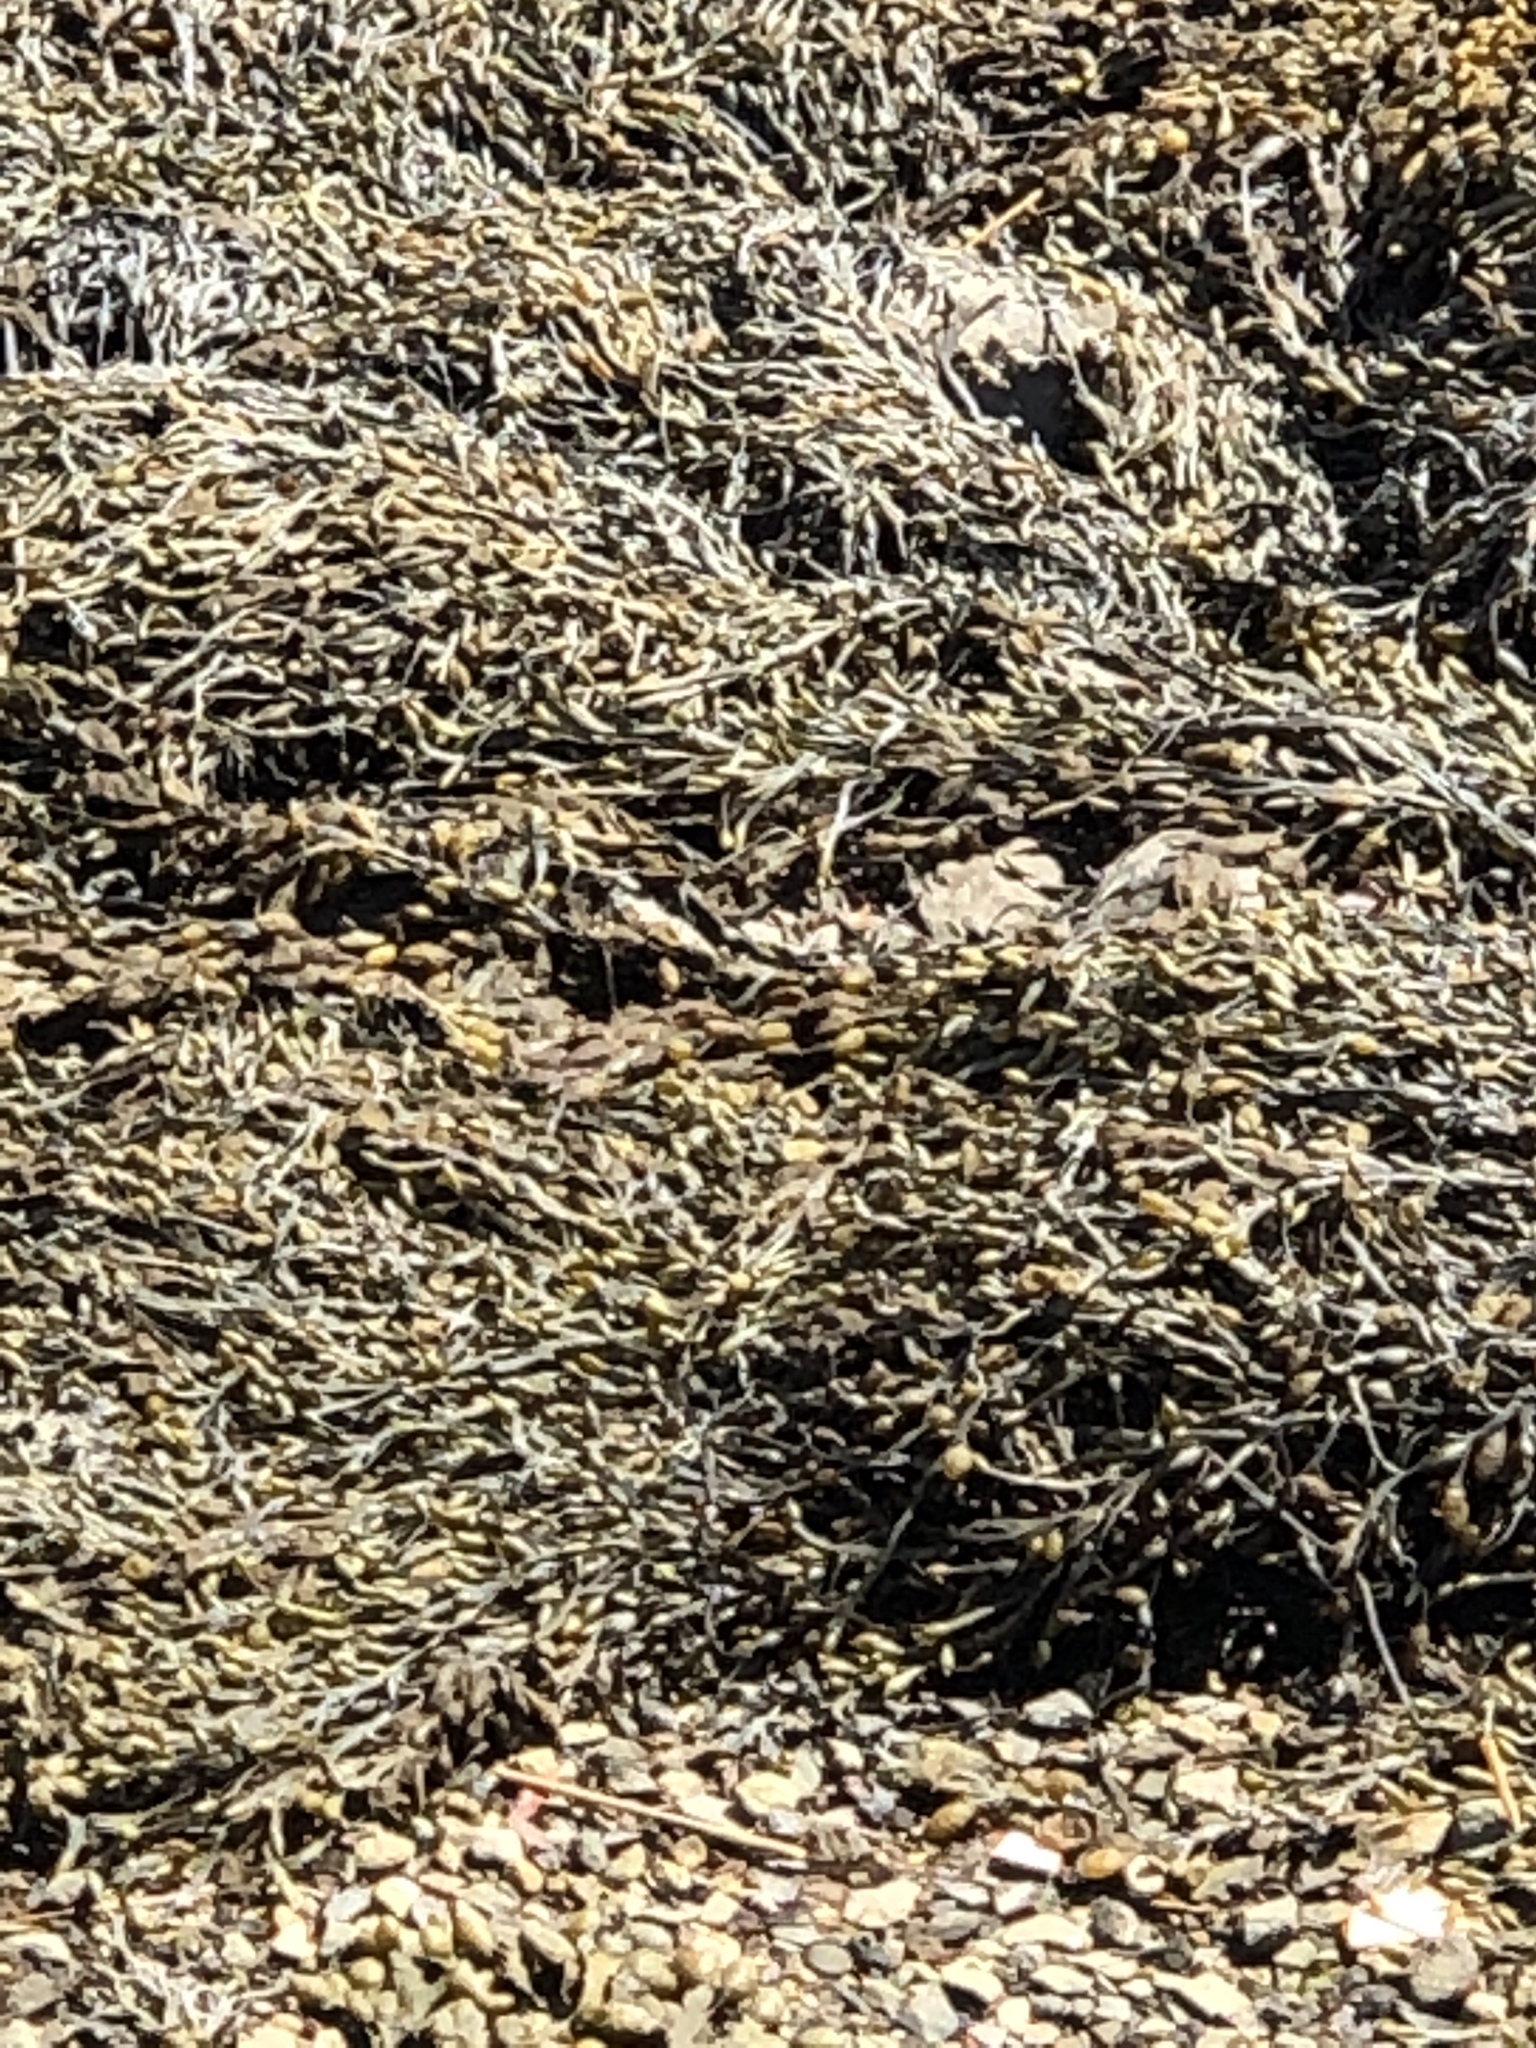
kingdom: Chromista
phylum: Ochrophyta
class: Phaeophyceae
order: Fucales
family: Fucaceae
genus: Ascophyllum
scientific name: Ascophyllum nodosum
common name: Knotted wrack
